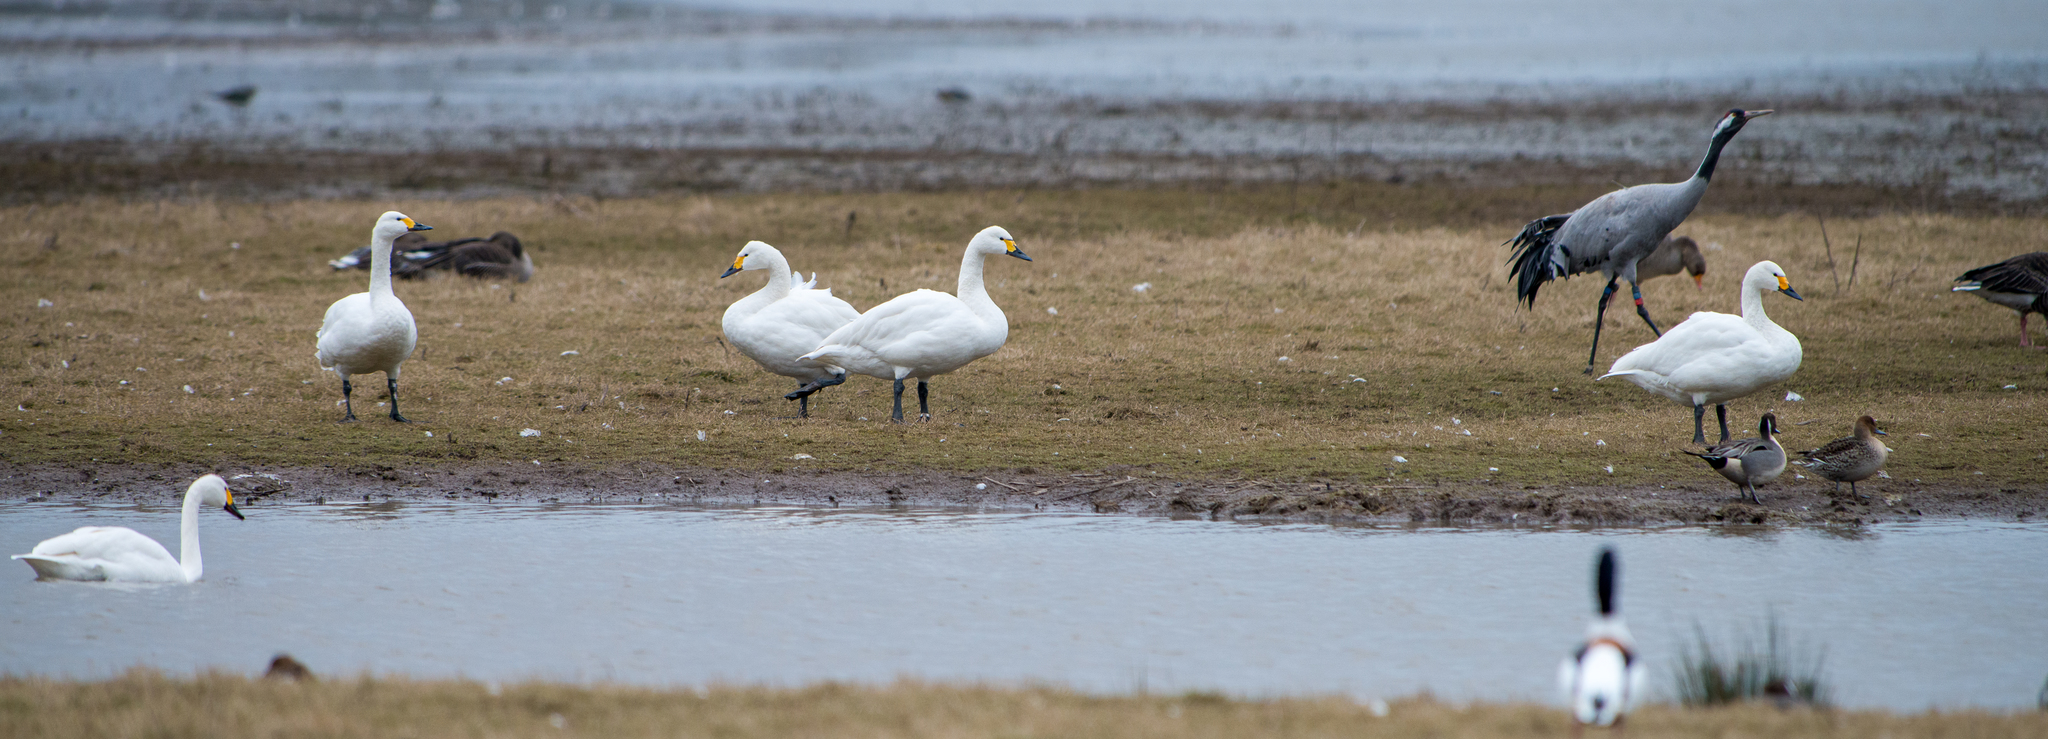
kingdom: Animalia
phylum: Chordata
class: Aves
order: Anseriformes
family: Anatidae
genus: Cygnus
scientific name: Cygnus columbianus
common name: Tundra swan
